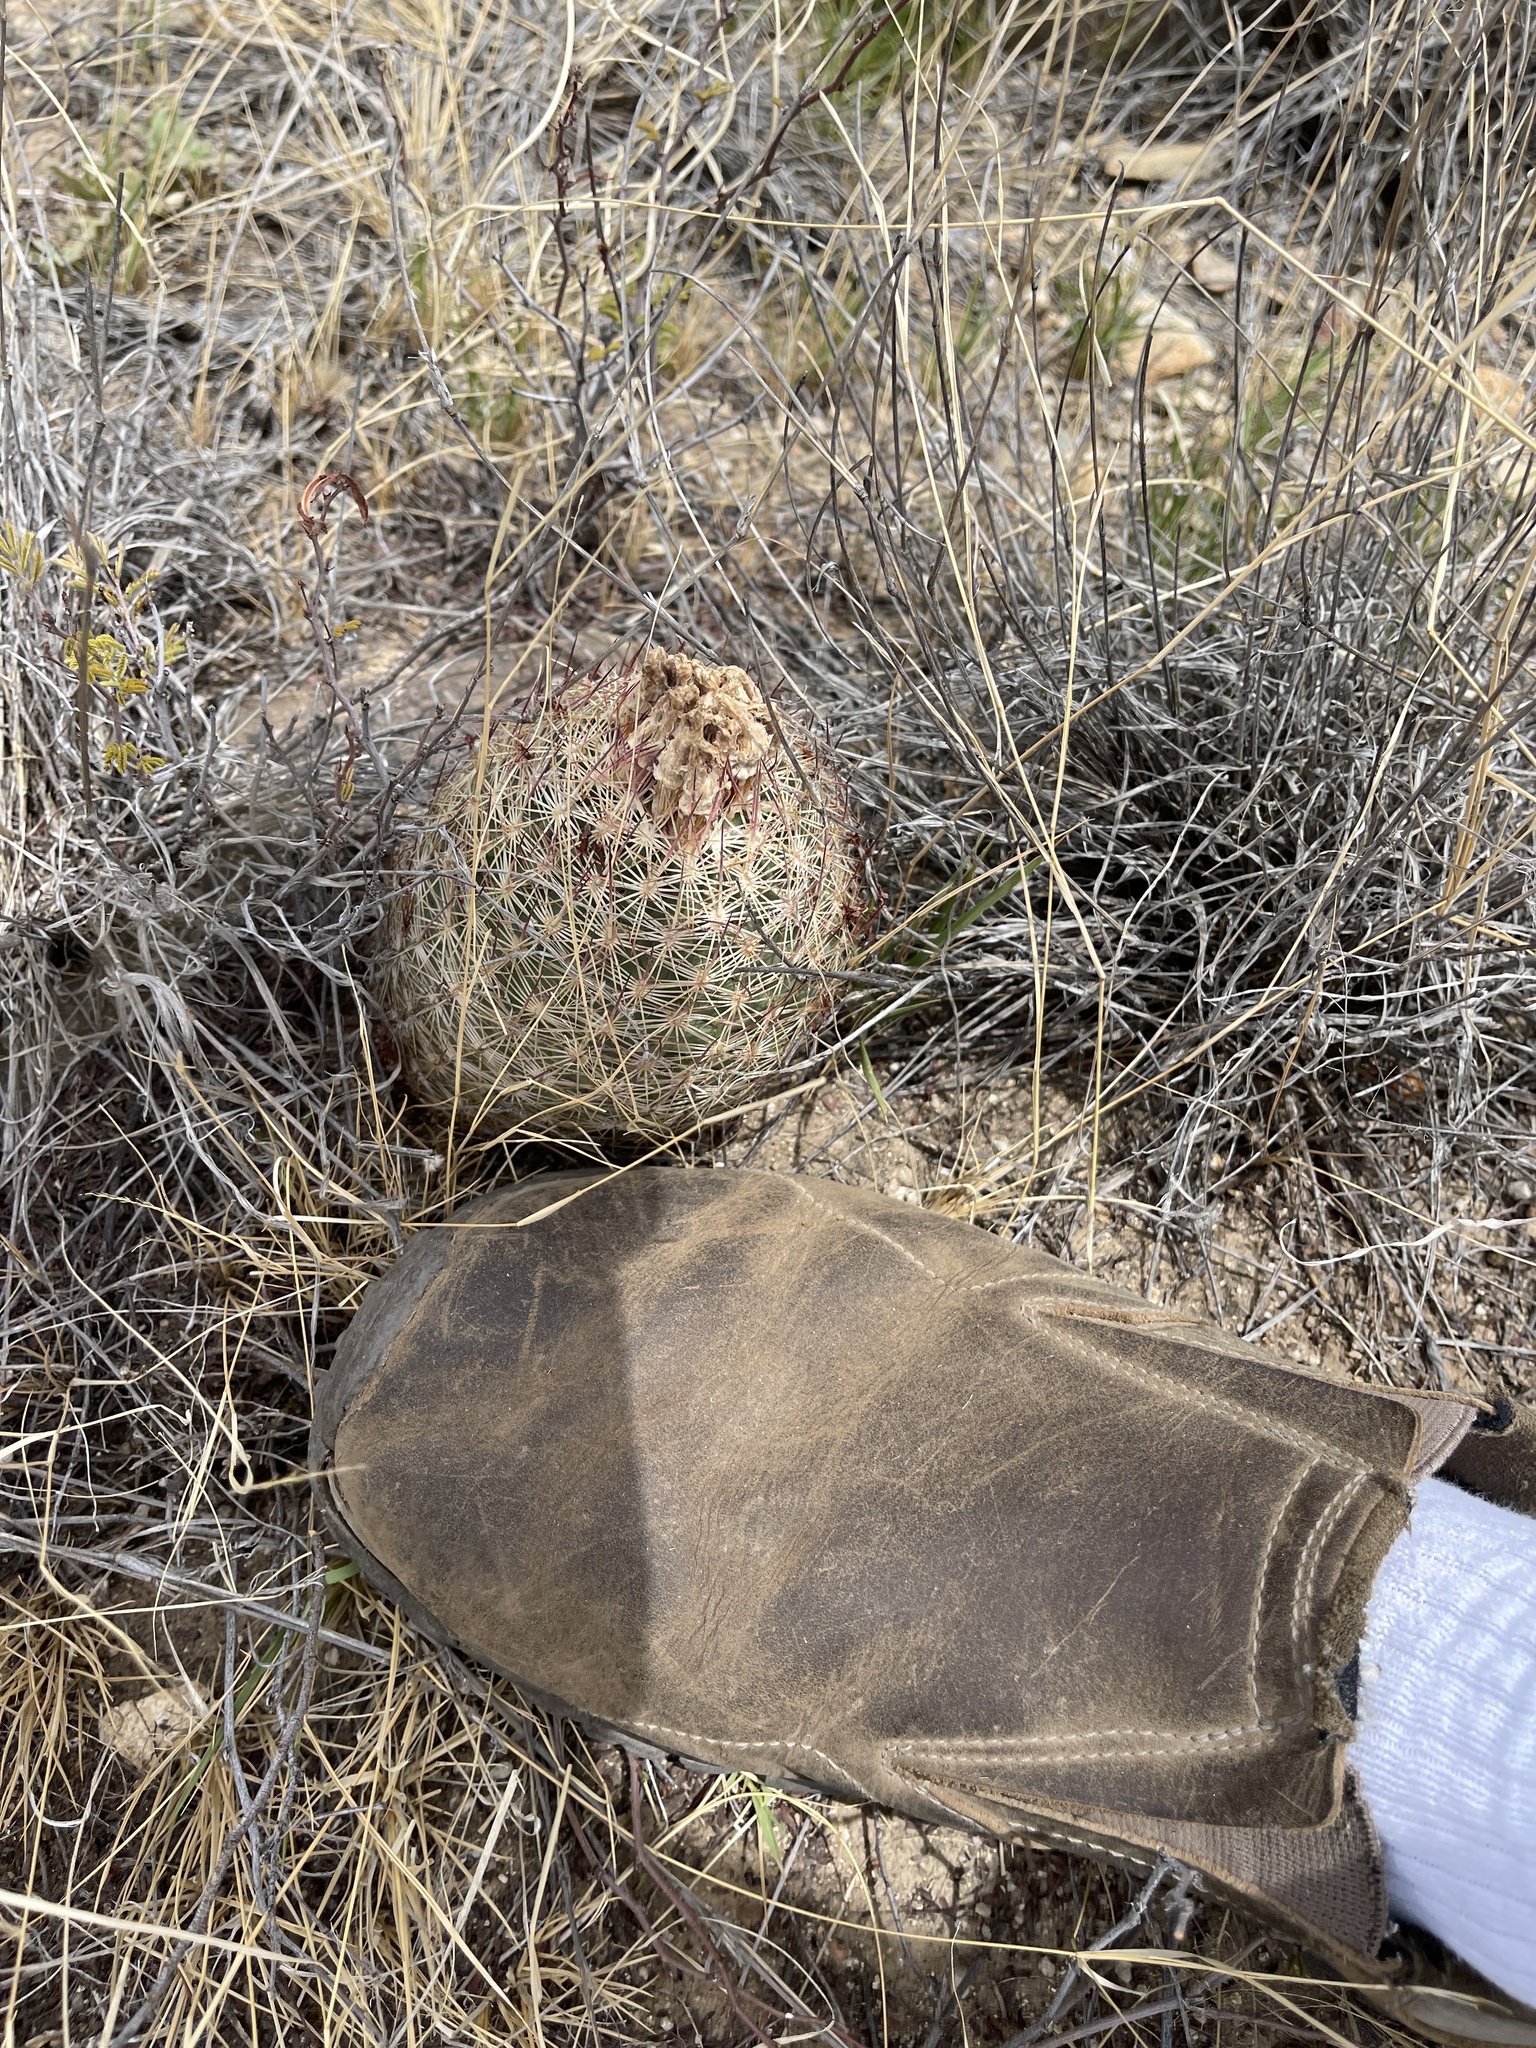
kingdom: Plantae
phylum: Tracheophyta
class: Magnoliopsida
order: Caryophyllales
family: Cactaceae
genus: Sclerocactus
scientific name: Sclerocactus johnsonii
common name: Eight-spine fishhook cactus
